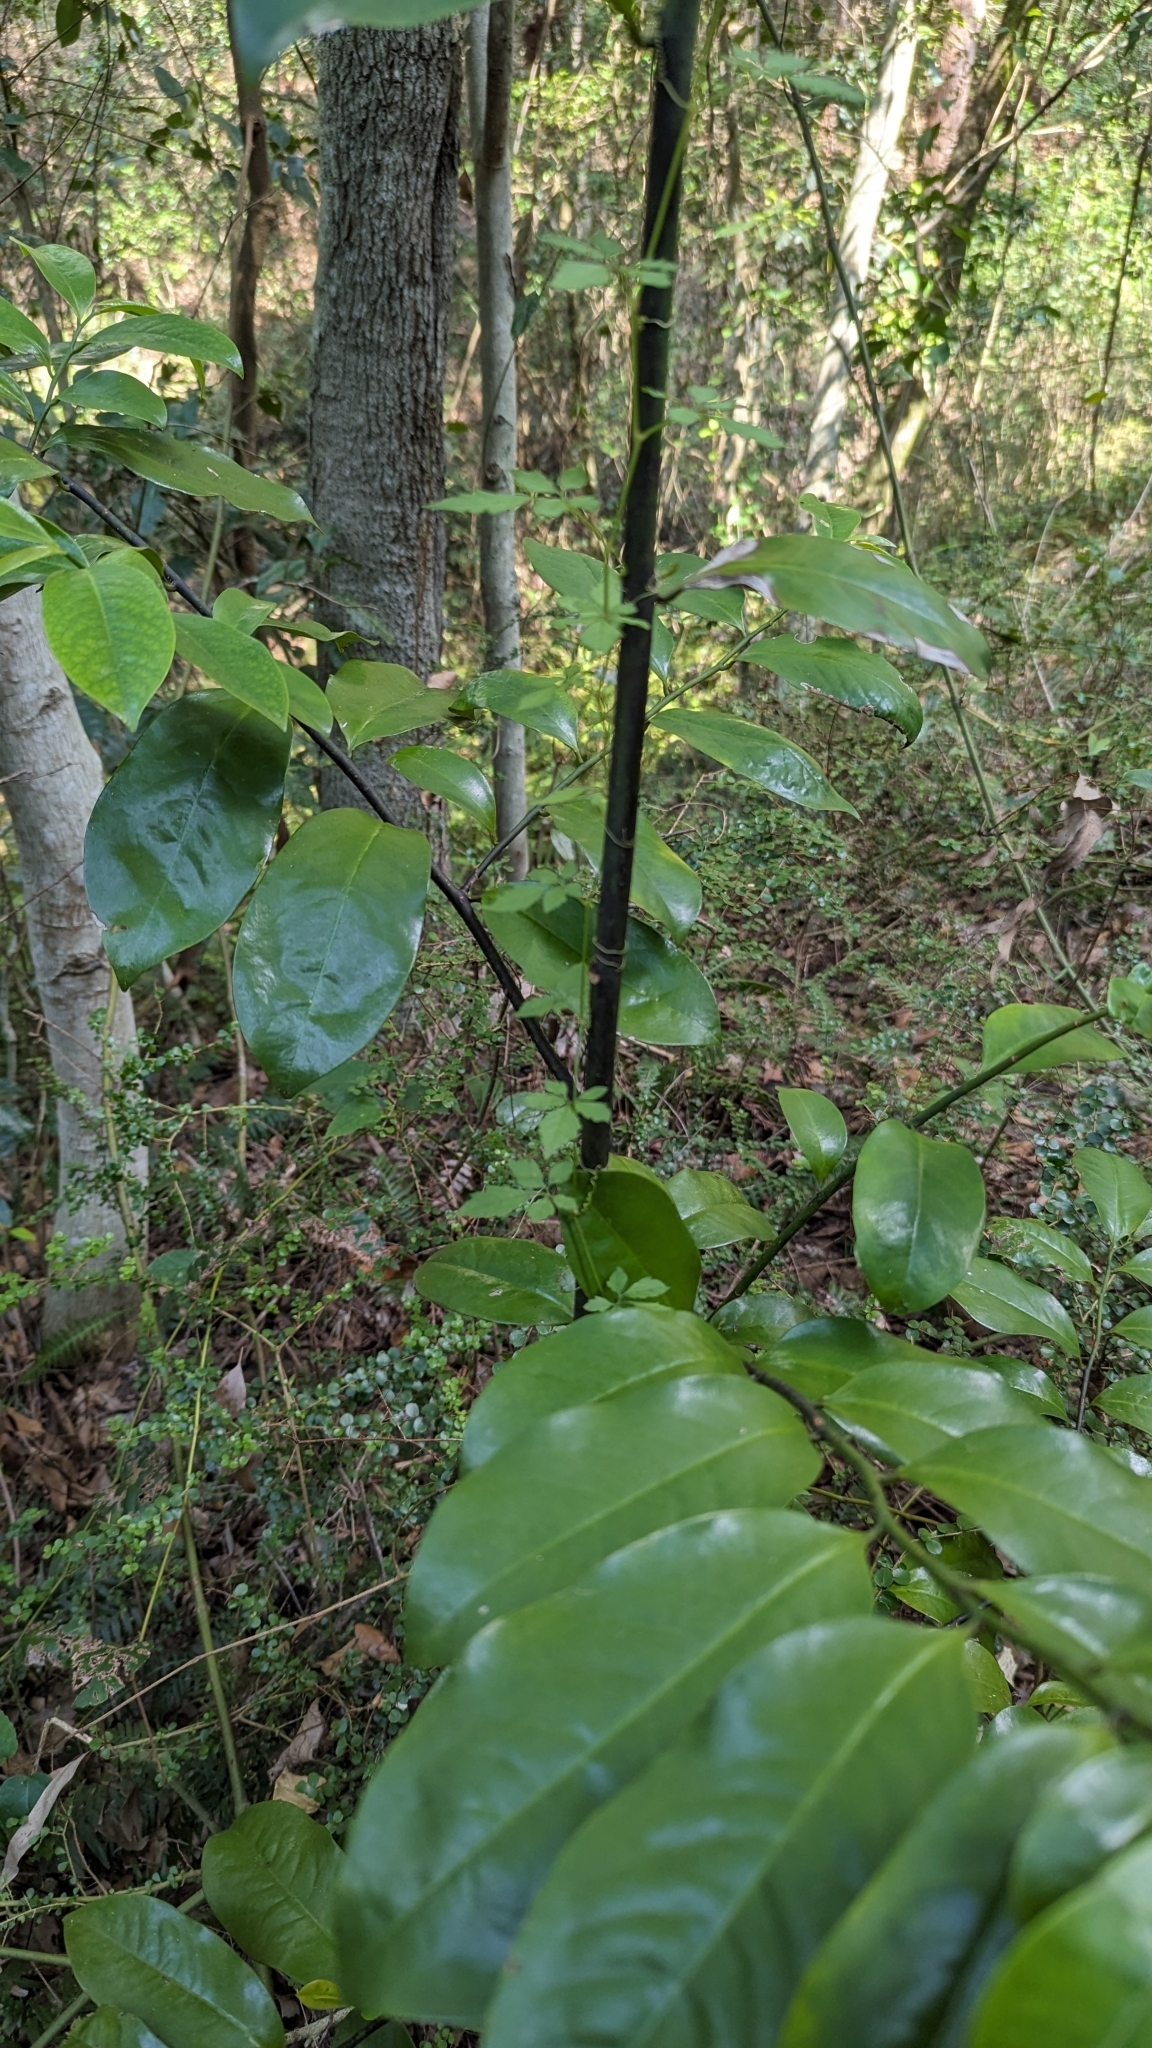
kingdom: Plantae
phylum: Tracheophyta
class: Magnoliopsida
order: Magnoliales
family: Eupomatiaceae
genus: Eupomatia
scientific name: Eupomatia laurina
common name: Bolwarra
